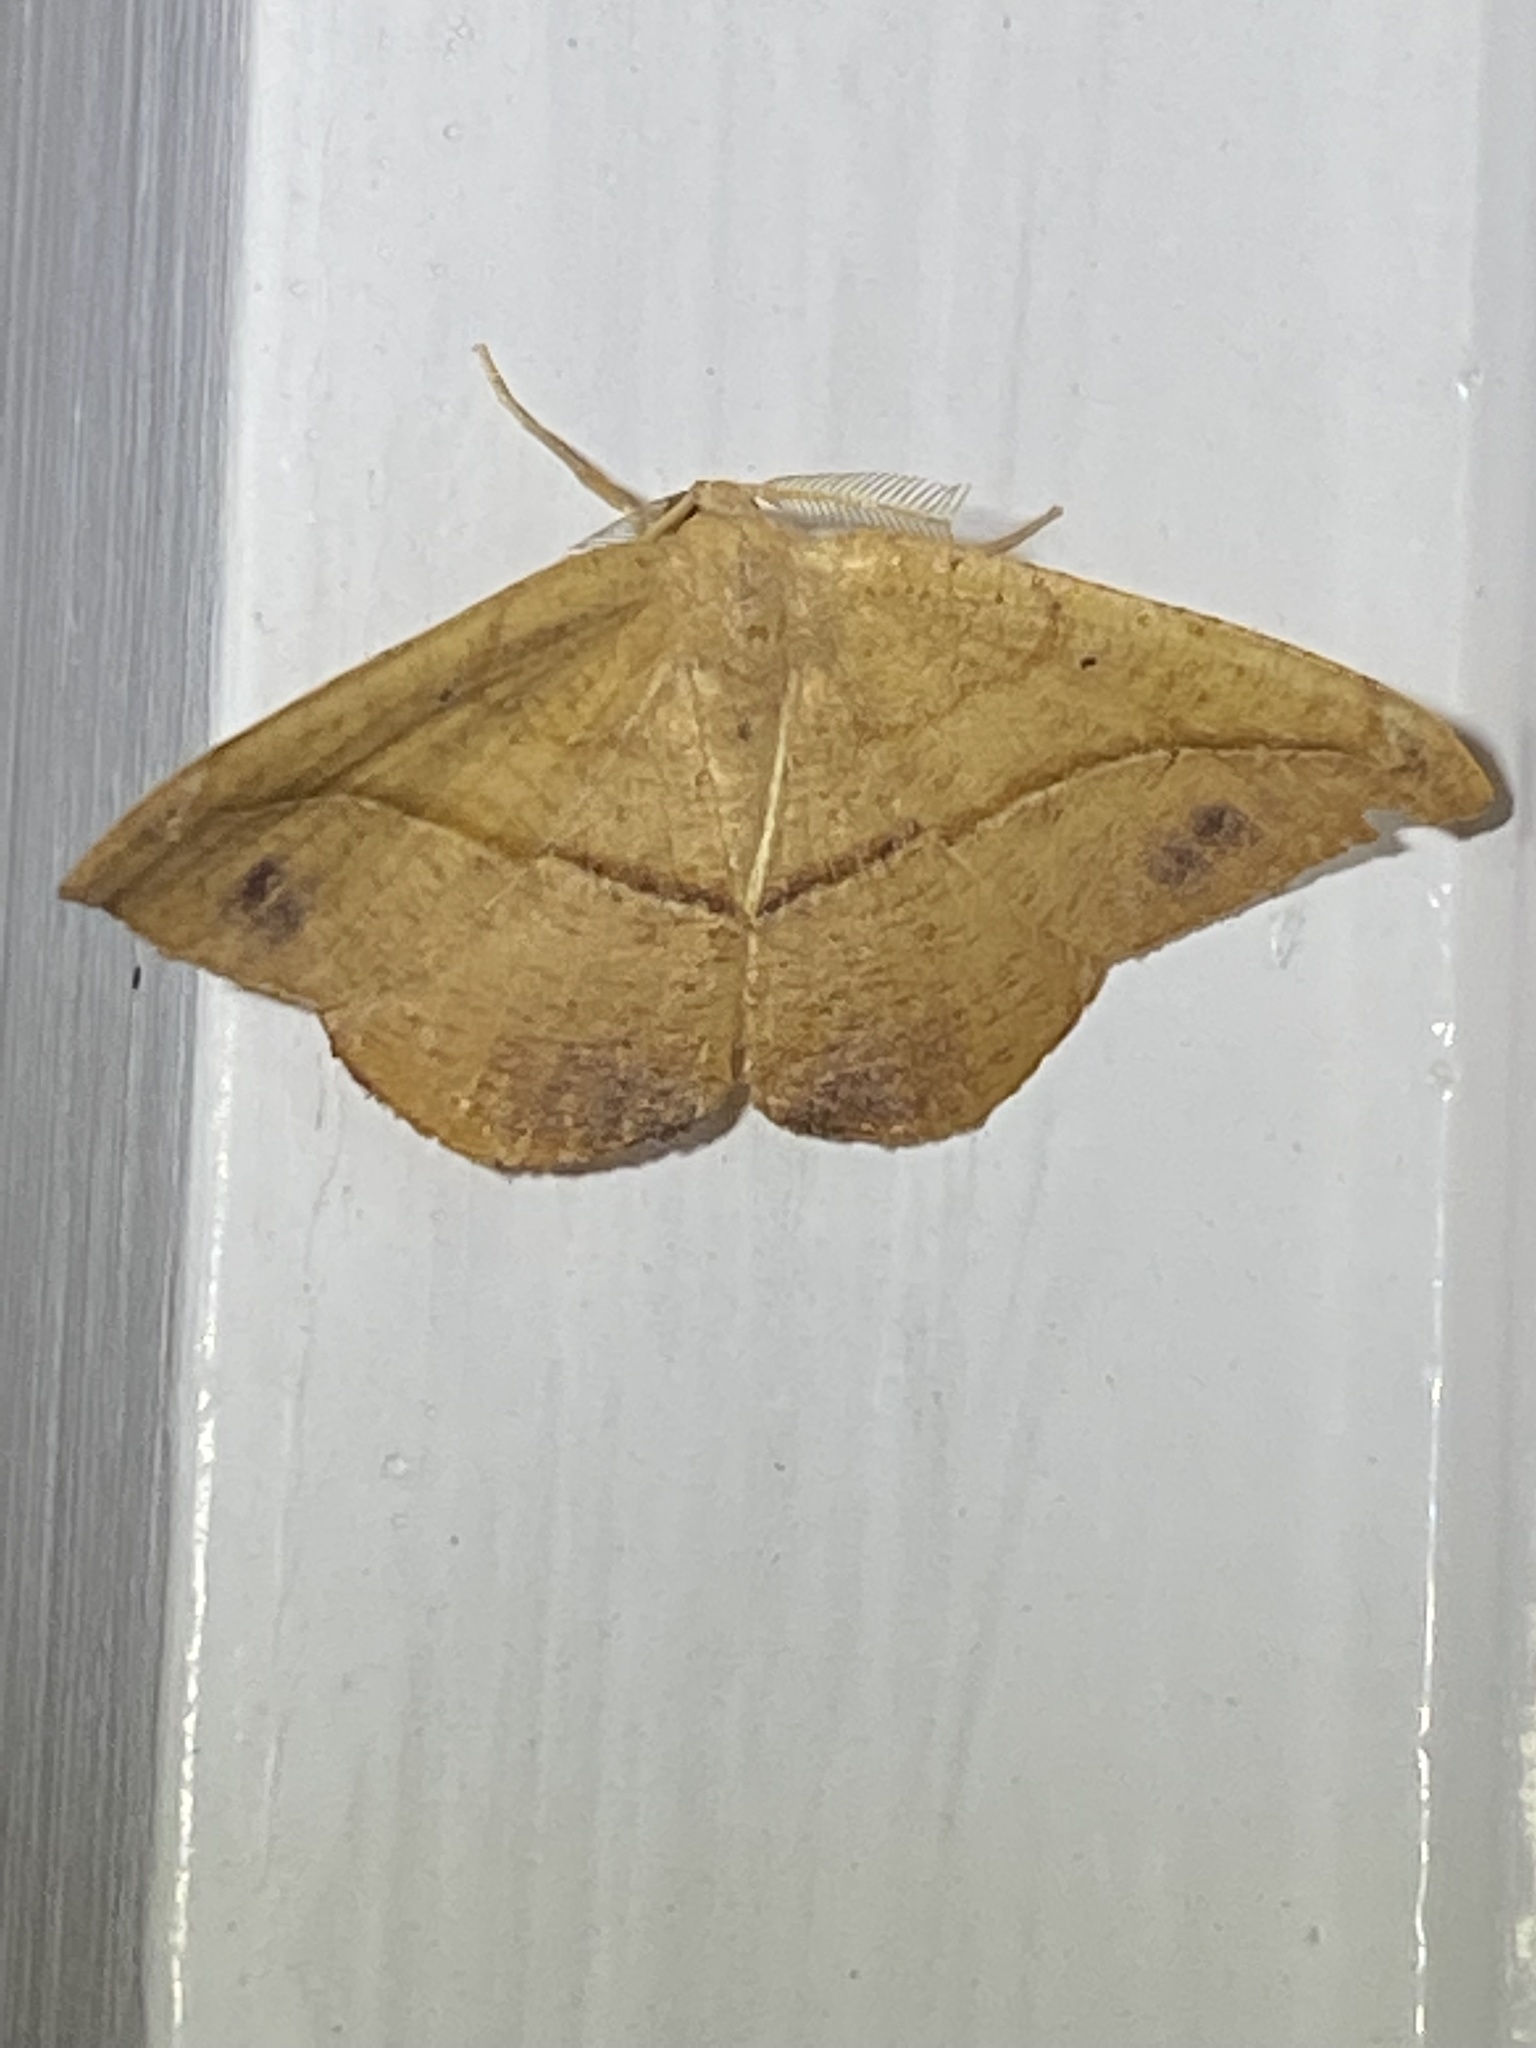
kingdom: Animalia
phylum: Arthropoda
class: Insecta
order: Lepidoptera
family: Geometridae
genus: Patalene
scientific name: Patalene olyzonaria
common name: Juniper geometer moth
